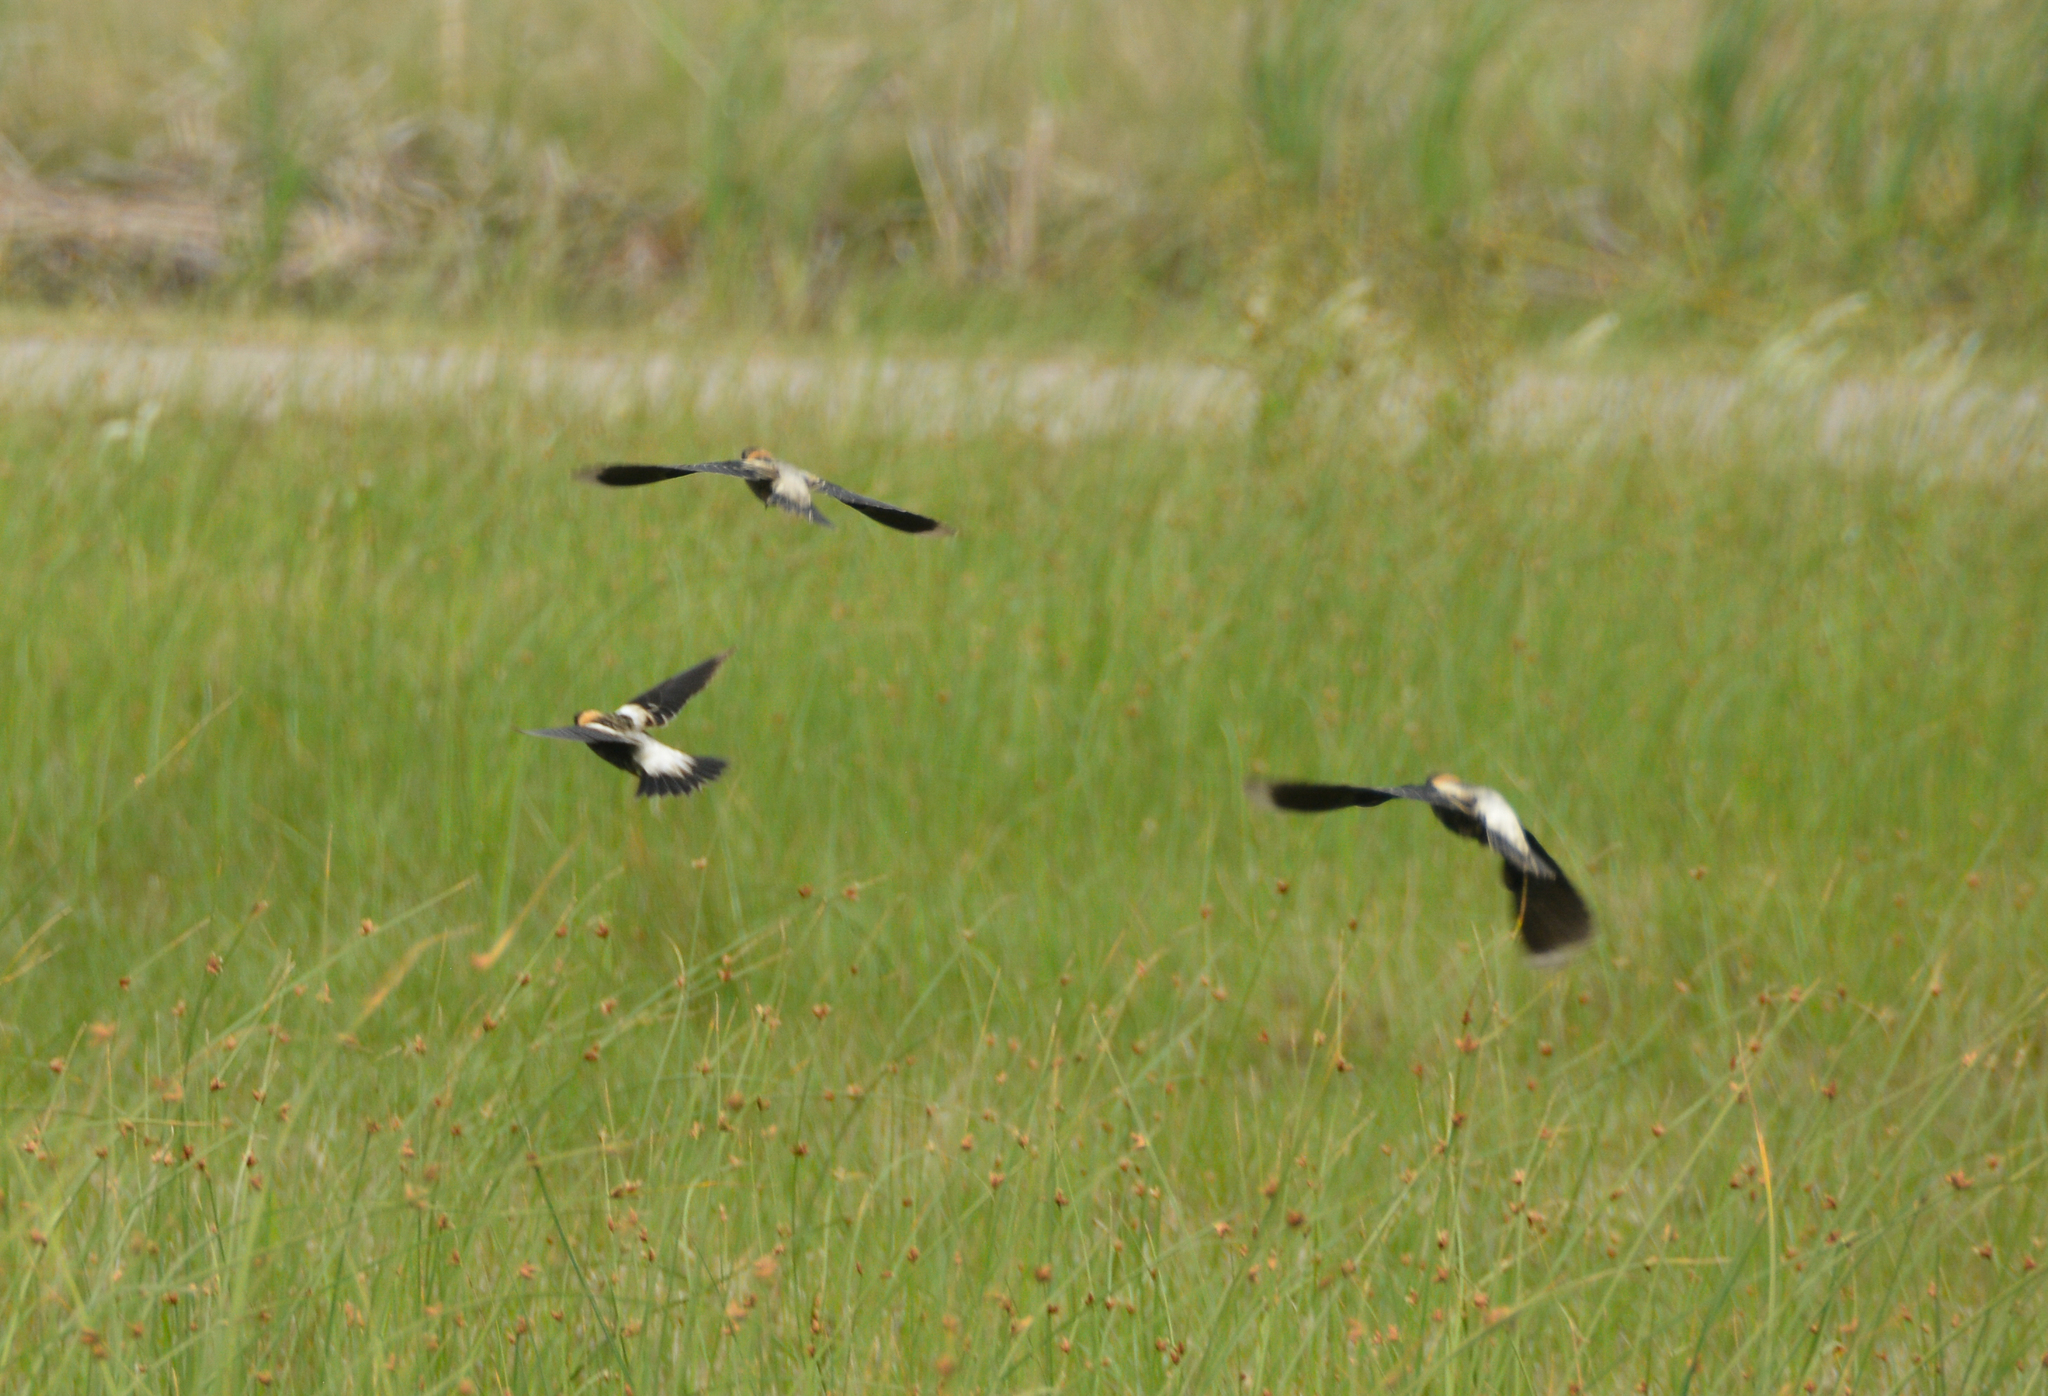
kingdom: Animalia
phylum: Chordata
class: Aves
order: Passeriformes
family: Icteridae
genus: Dolichonyx
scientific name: Dolichonyx oryzivorus
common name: Bobolink
